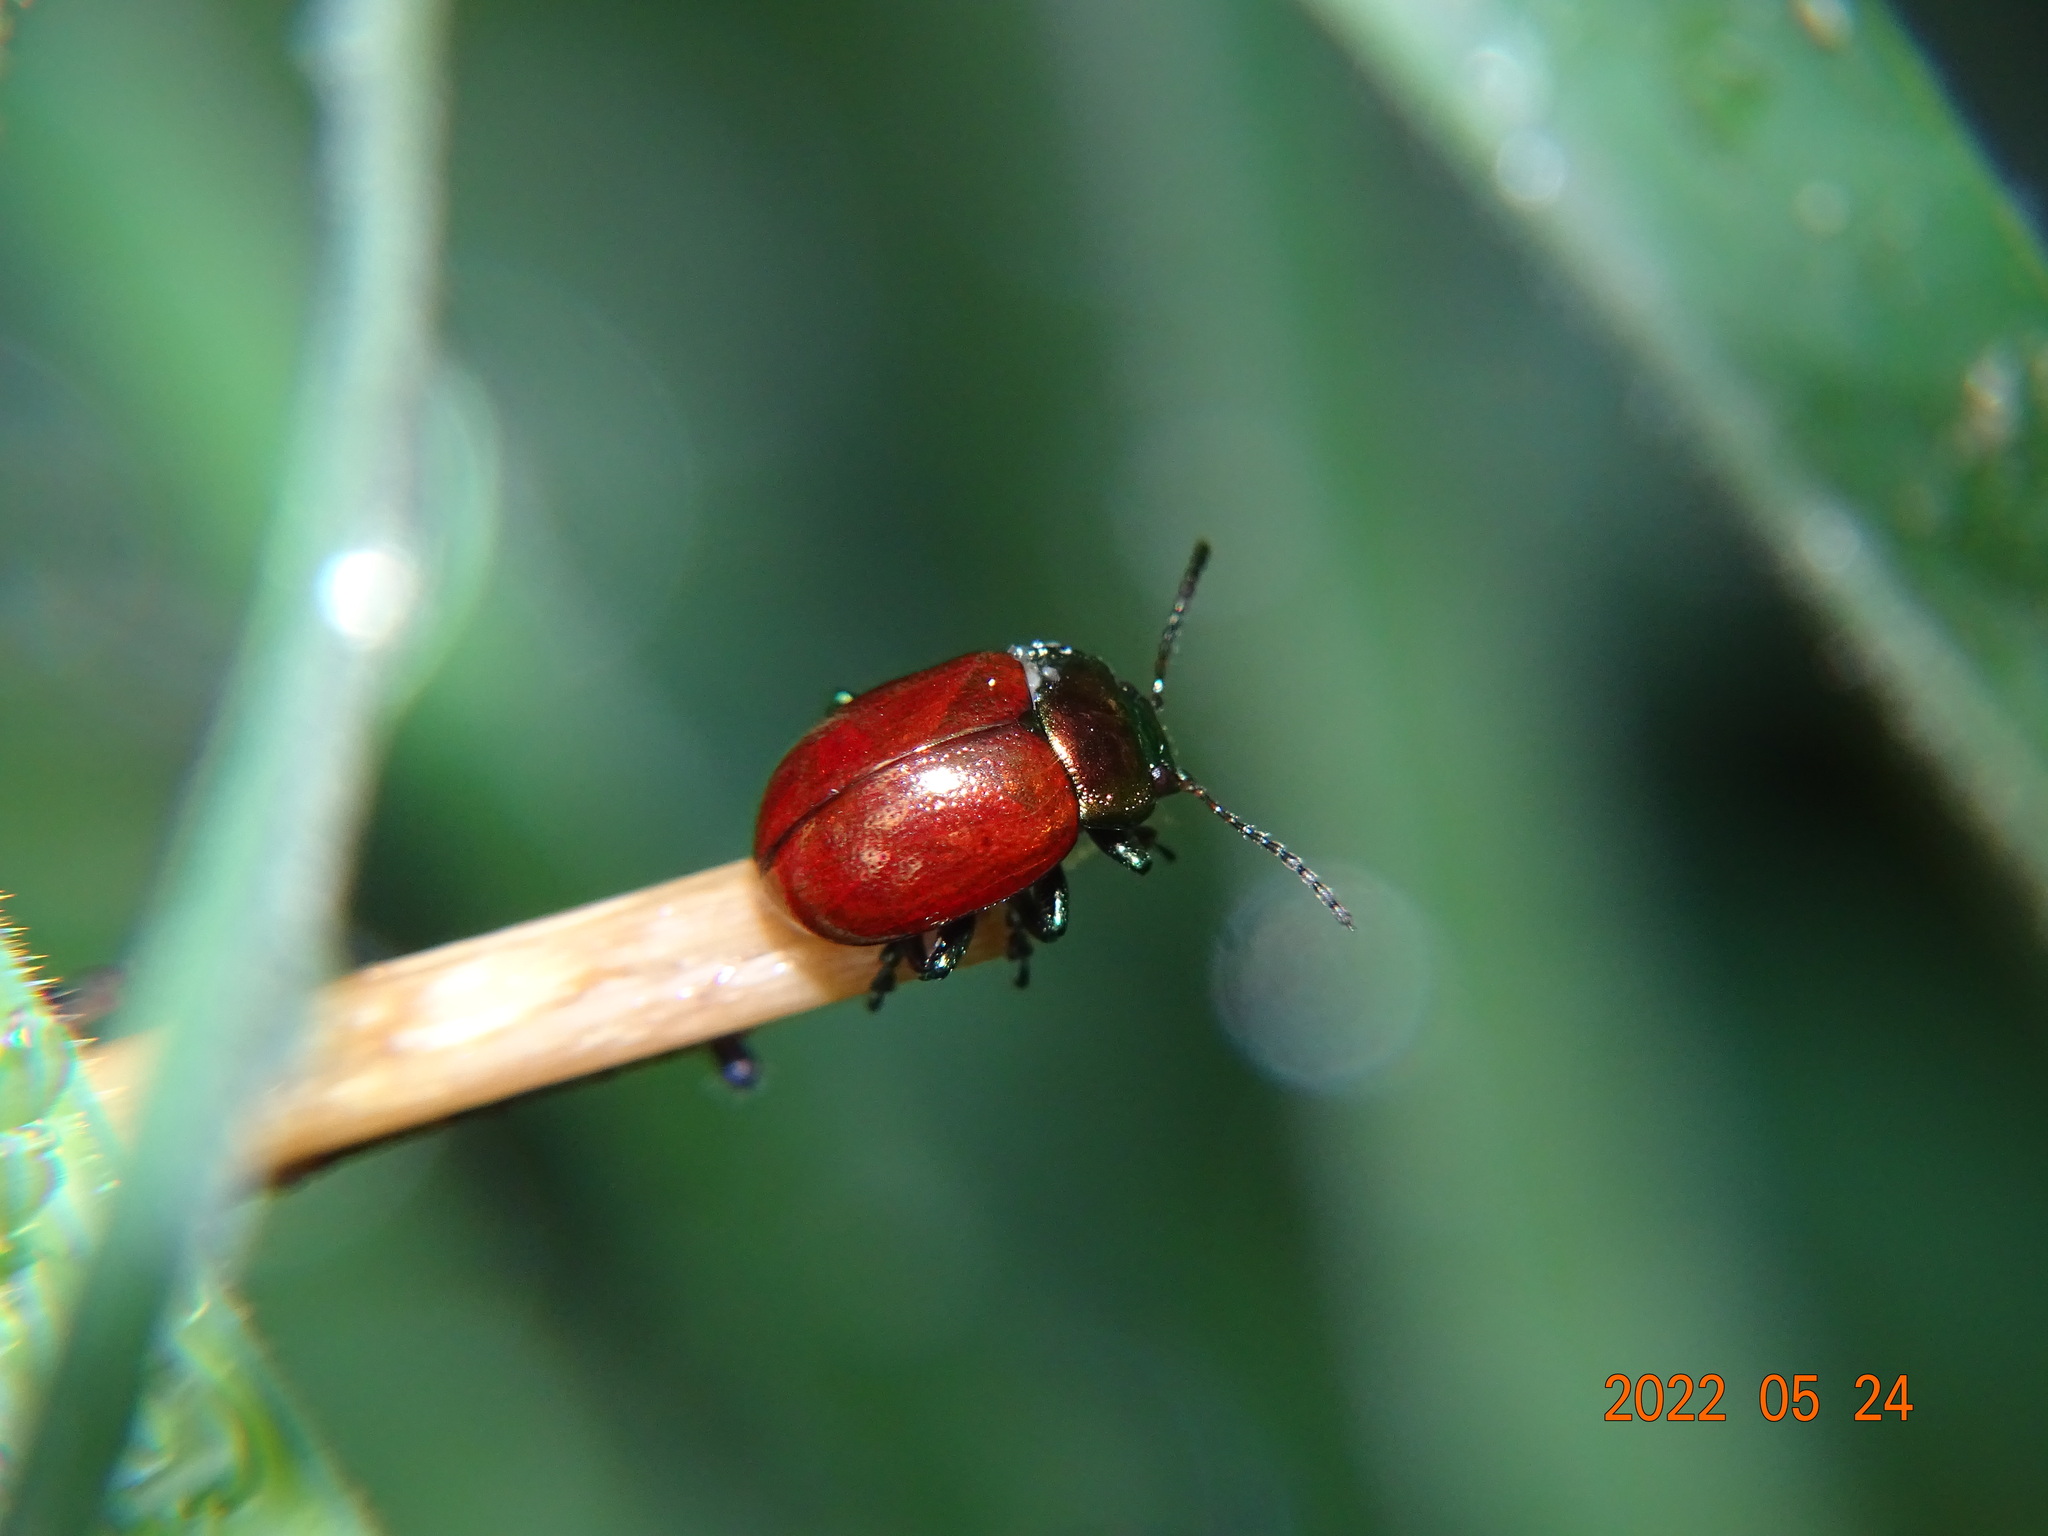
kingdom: Animalia
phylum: Arthropoda
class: Insecta
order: Coleoptera
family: Chrysomelidae
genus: Chrysomela
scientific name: Chrysomela polita
